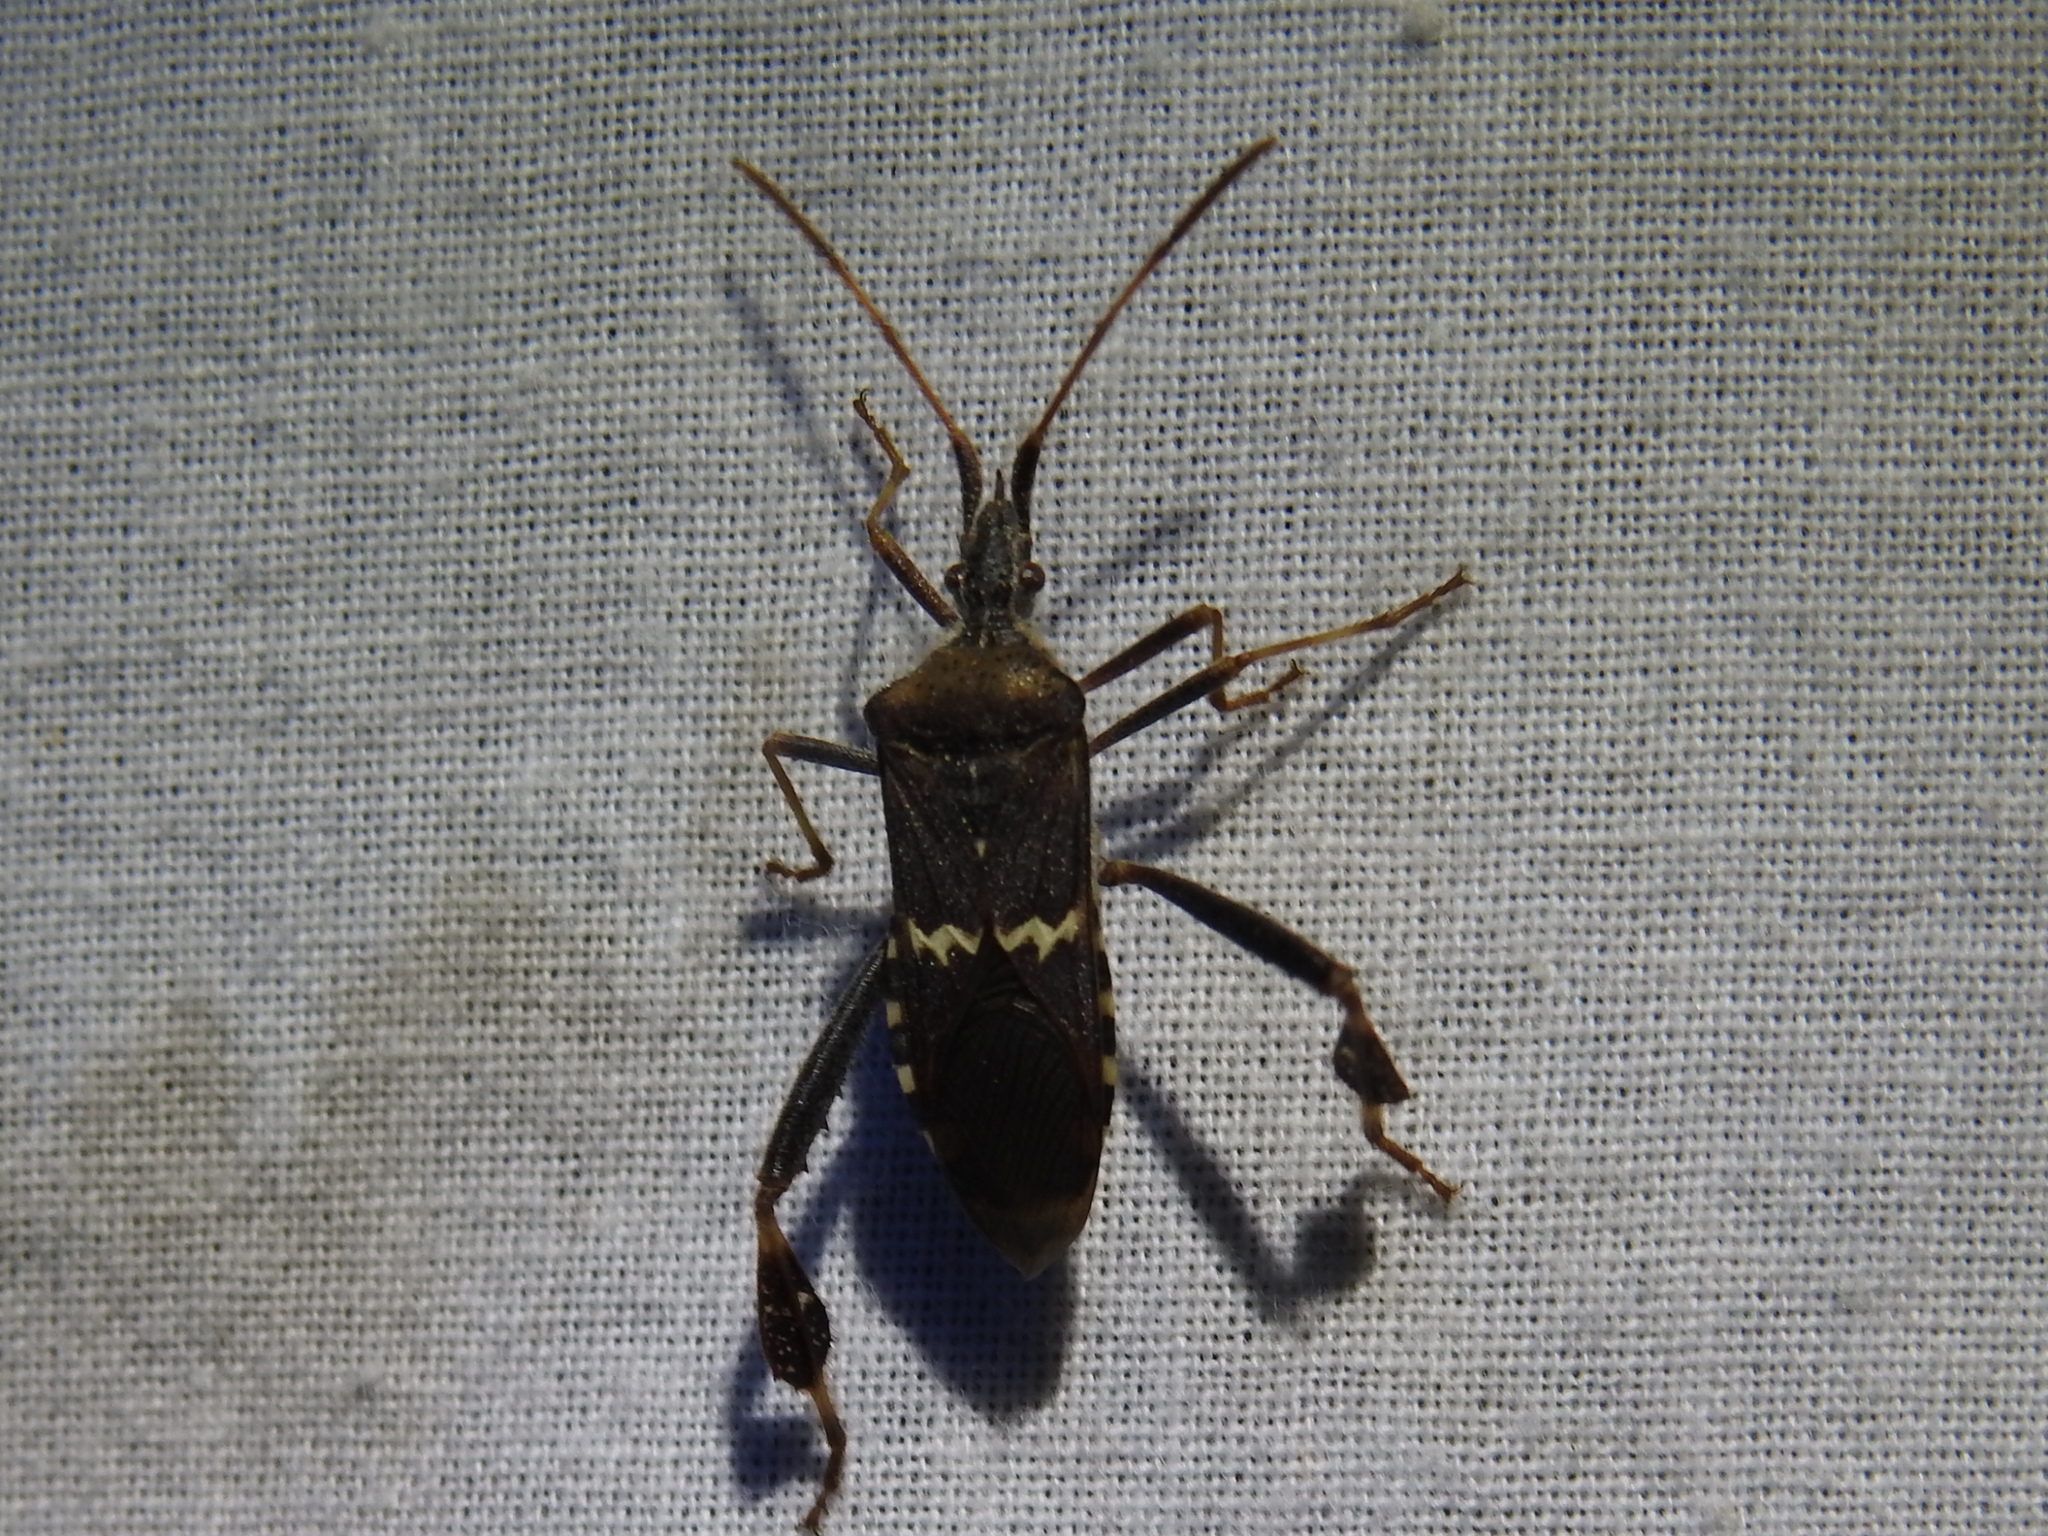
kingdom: Animalia
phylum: Arthropoda
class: Insecta
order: Hemiptera
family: Coreidae
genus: Leptoglossus
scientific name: Leptoglossus clypealis
